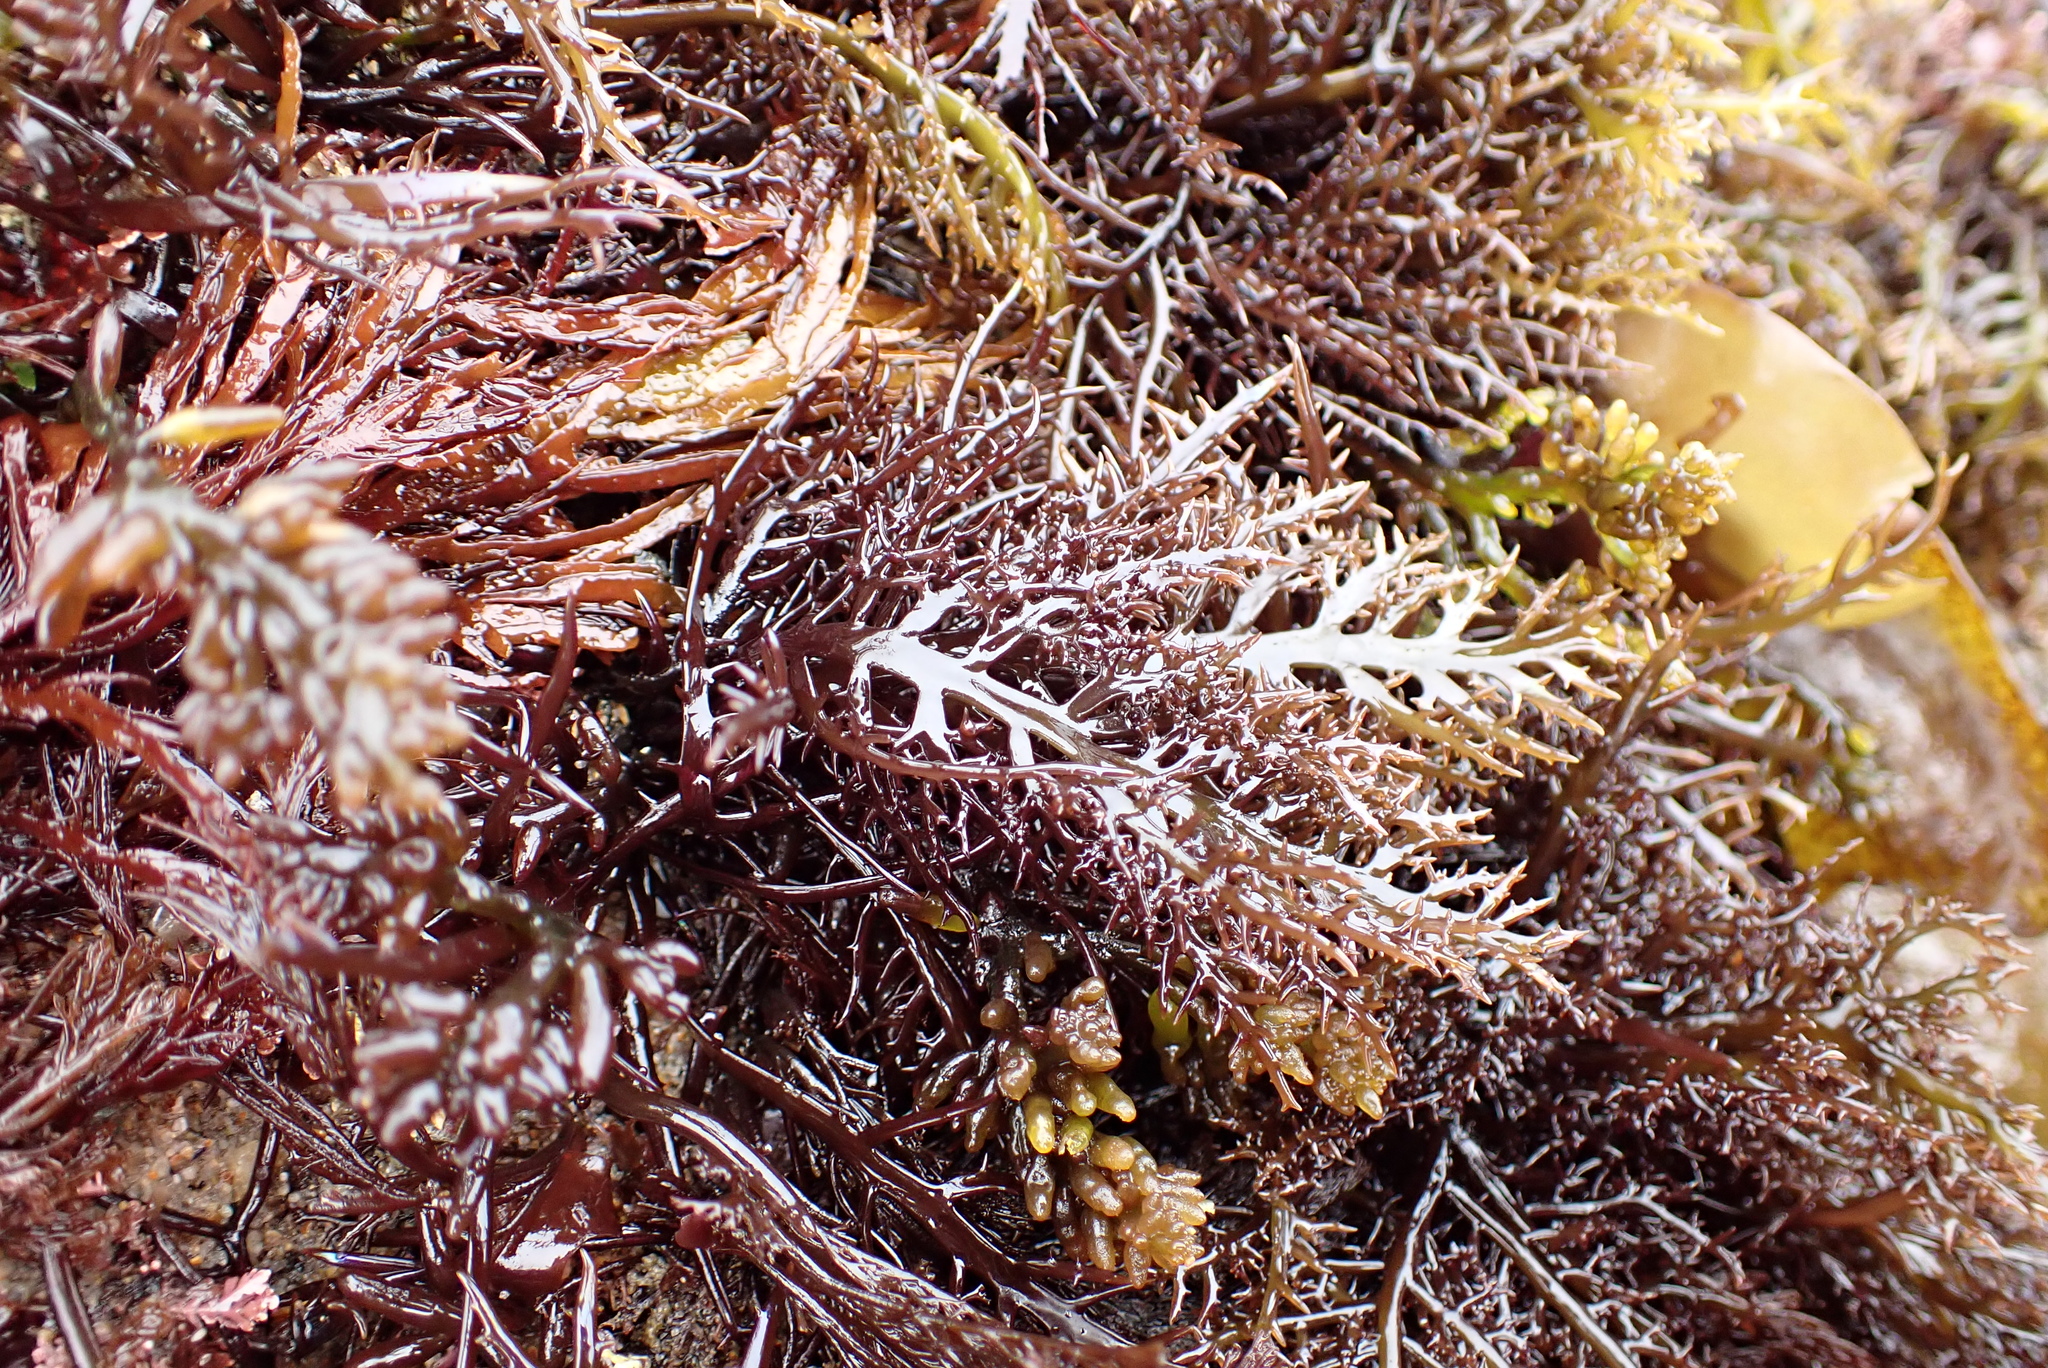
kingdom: Plantae
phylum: Rhodophyta
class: Florideophyceae
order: Gigartinales
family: Gigartinaceae
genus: Chondracanthus
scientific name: Chondracanthus canaliculatus
